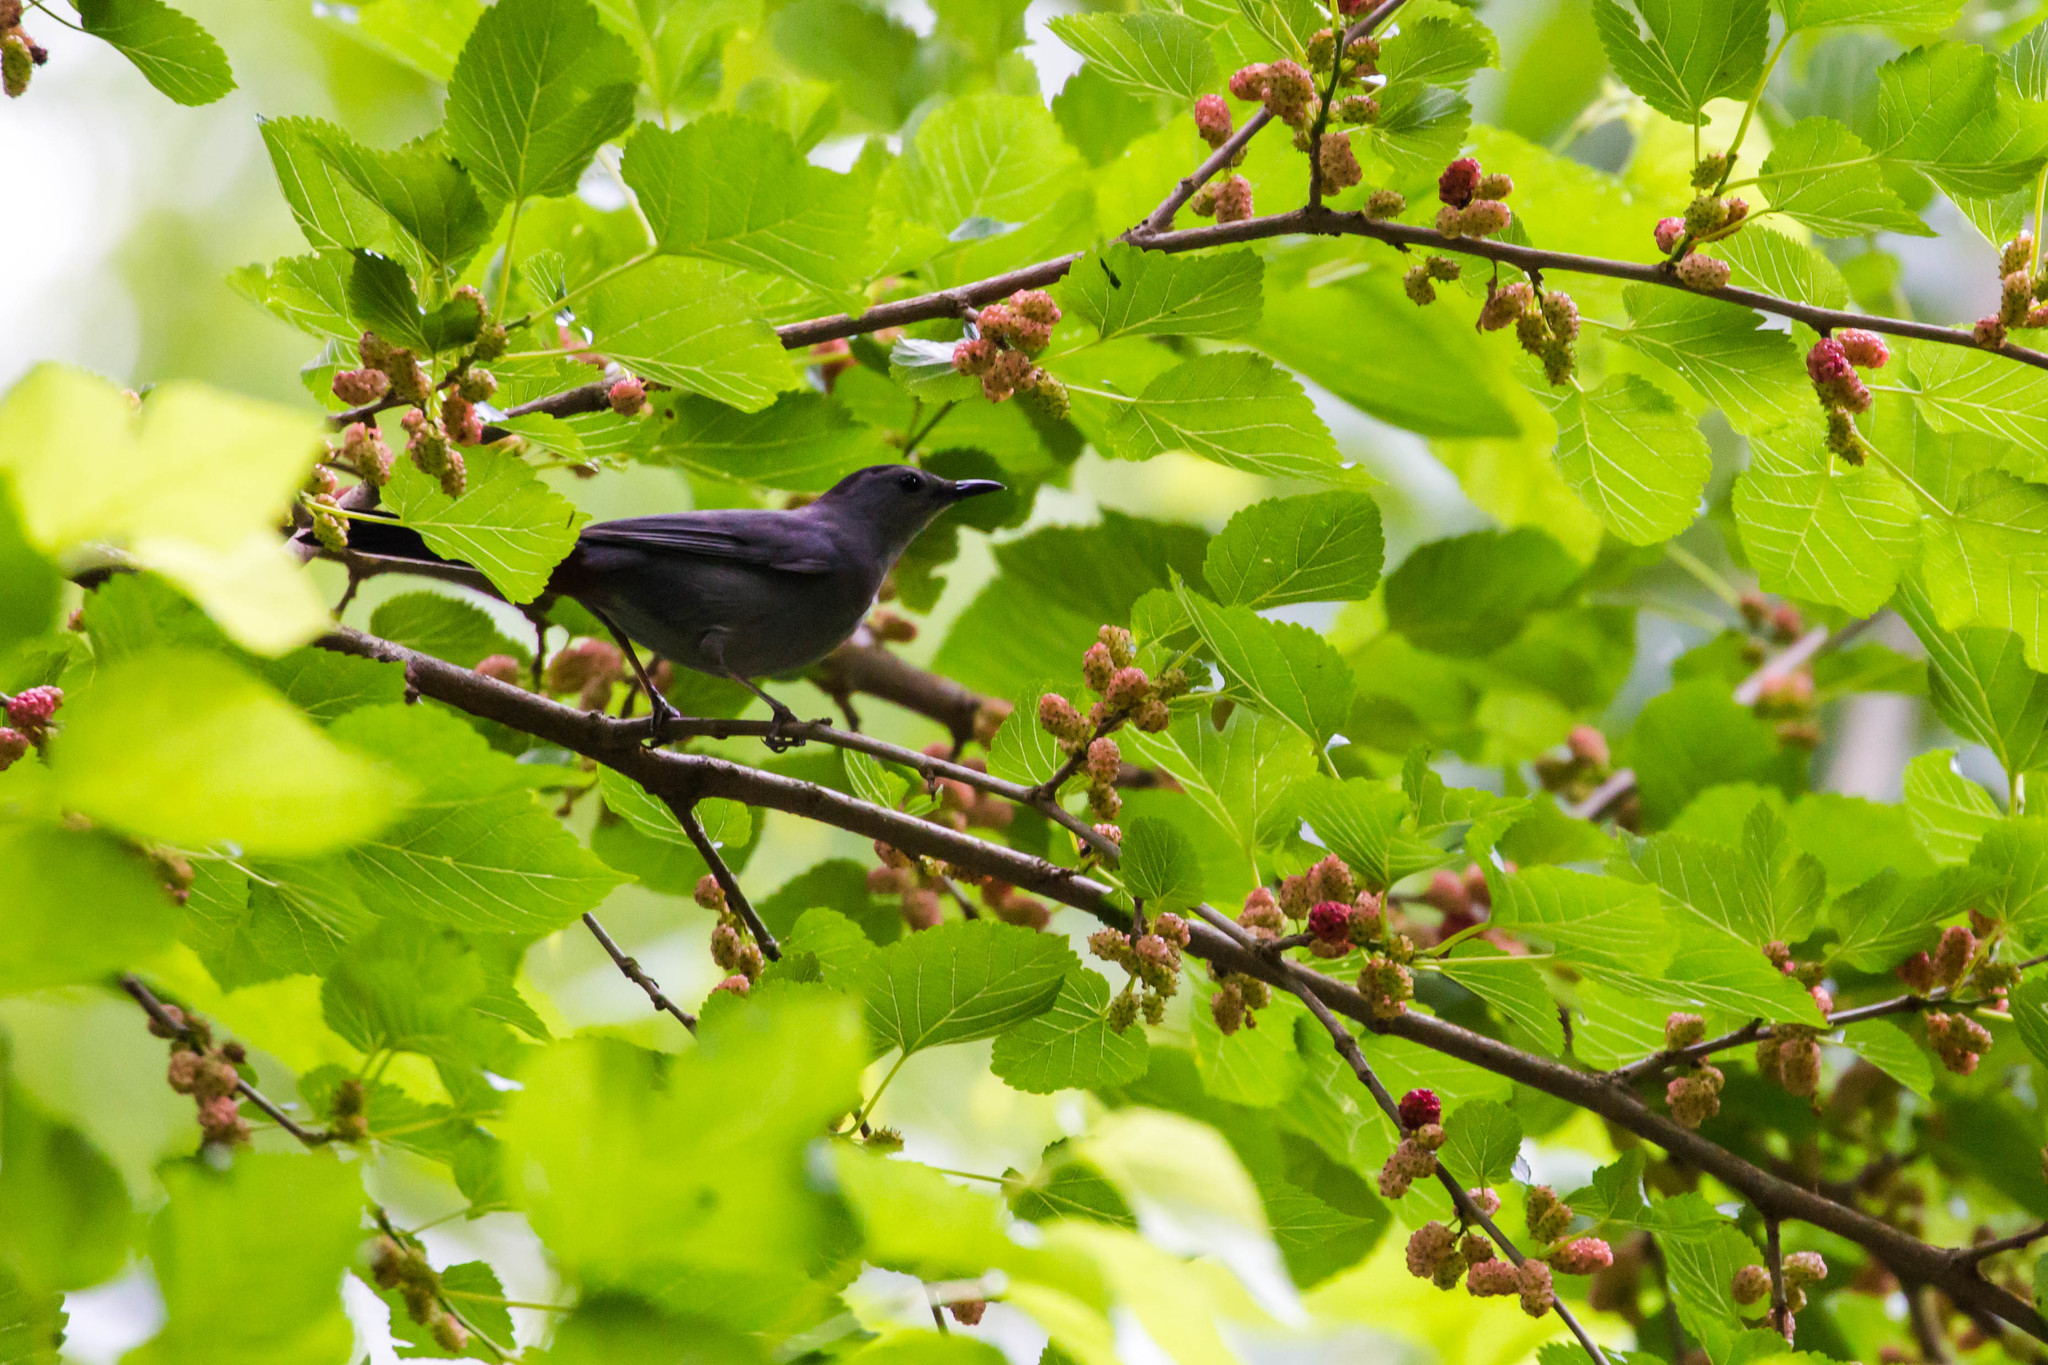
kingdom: Animalia
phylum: Chordata
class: Aves
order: Passeriformes
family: Mimidae
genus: Dumetella
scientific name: Dumetella carolinensis
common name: Gray catbird
